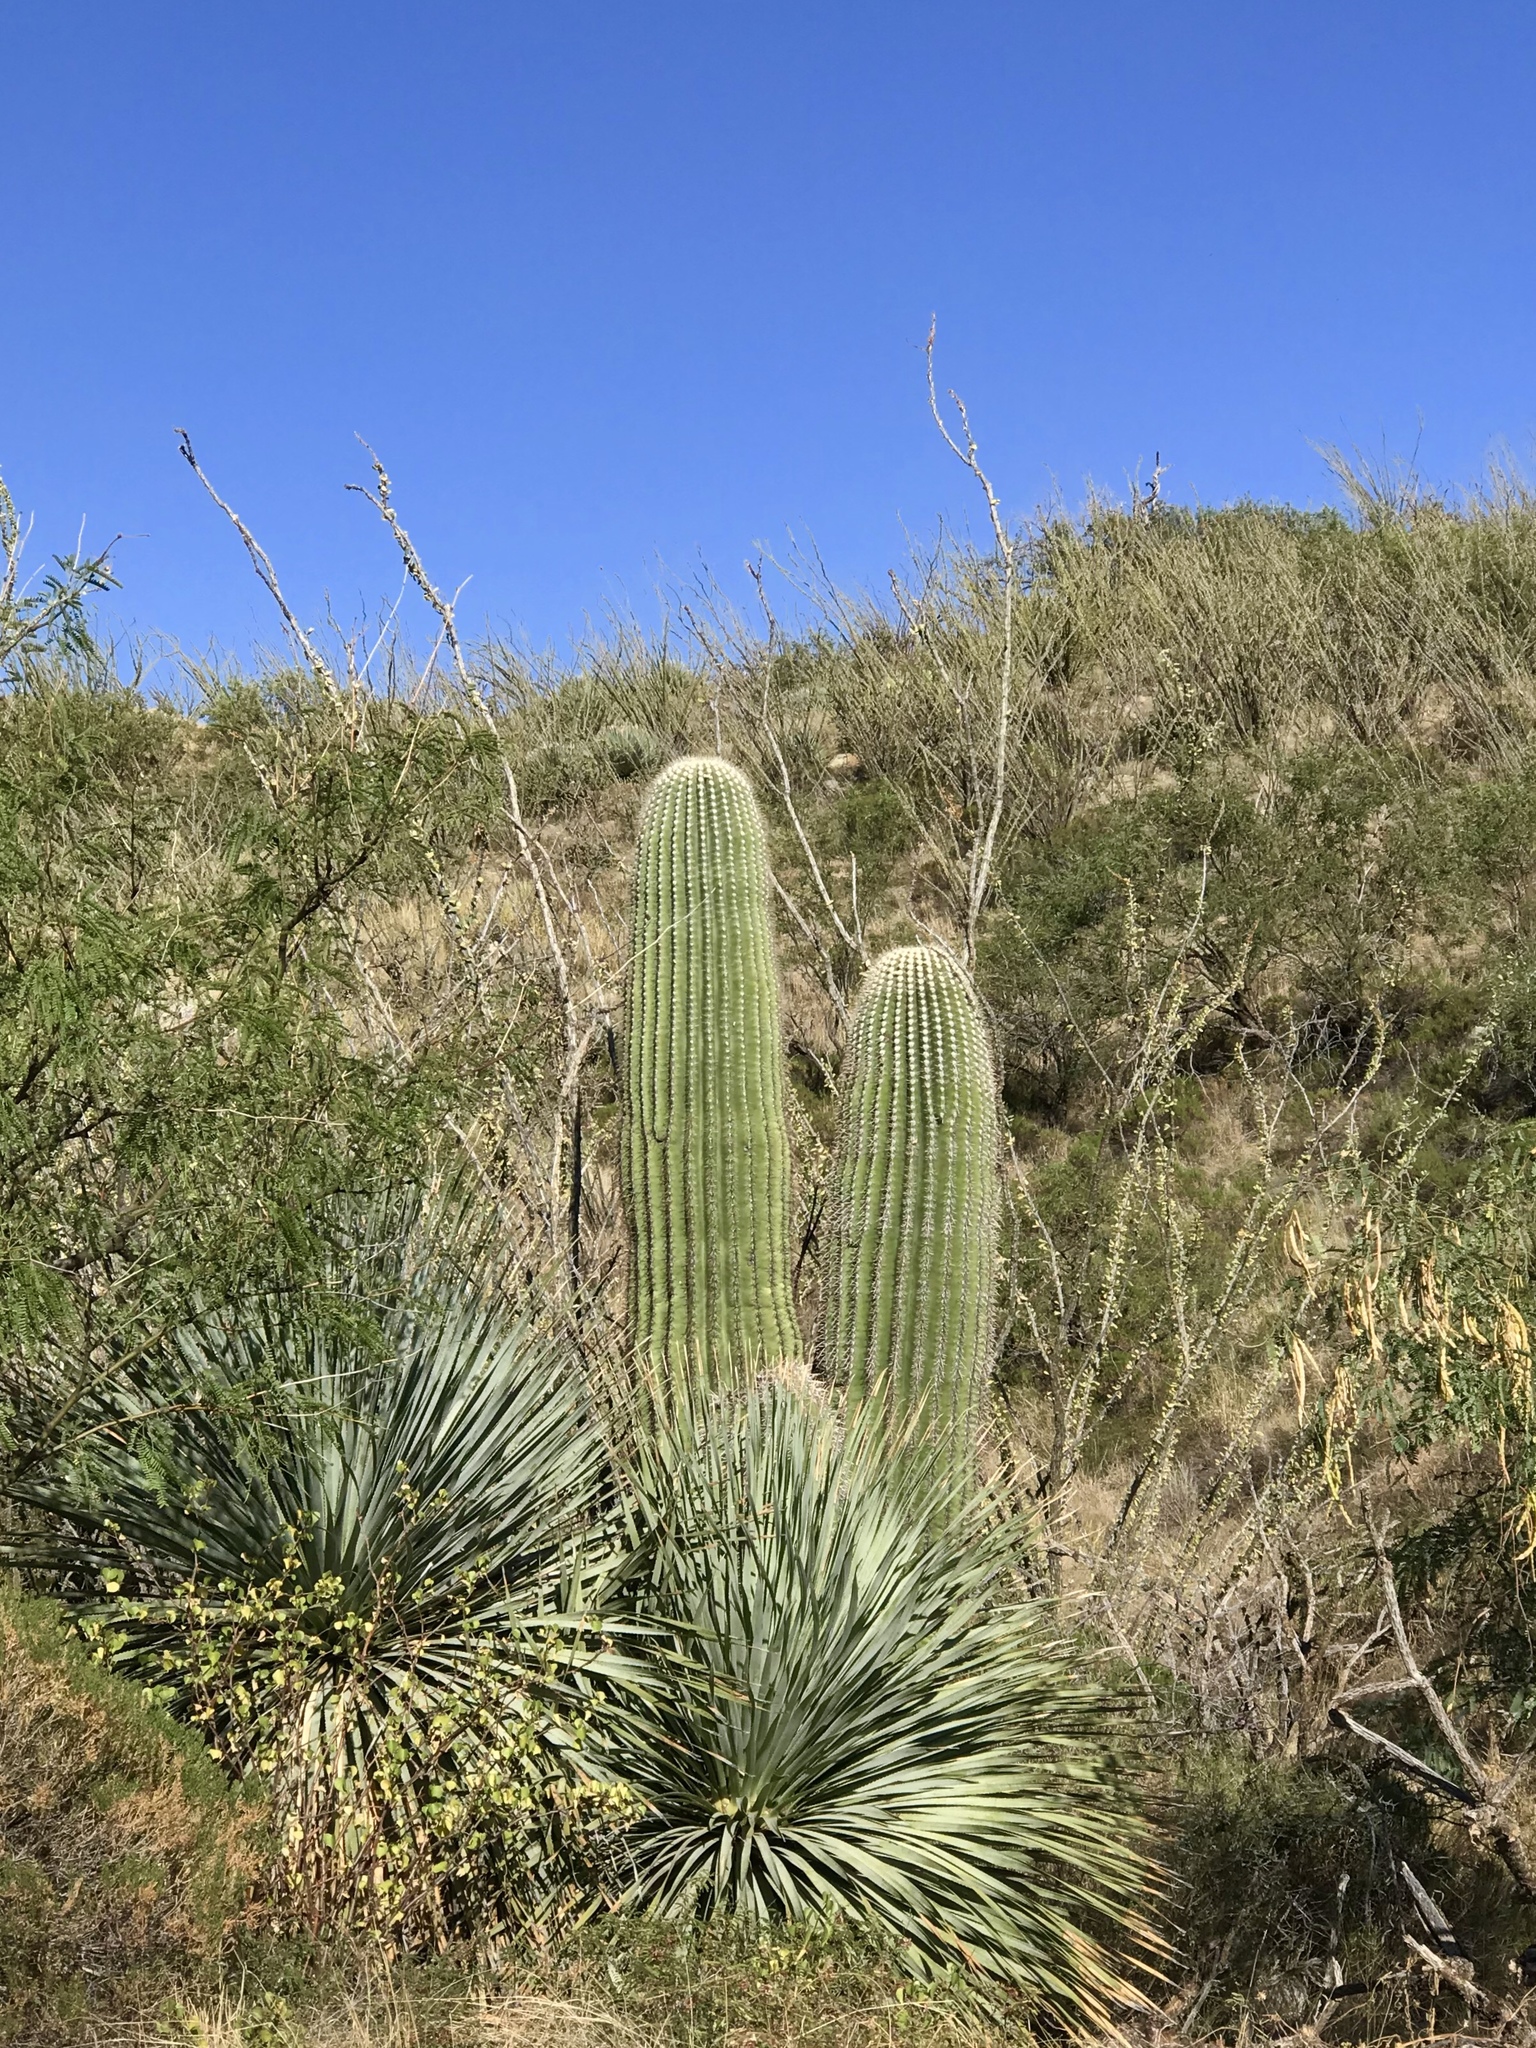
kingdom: Plantae
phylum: Tracheophyta
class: Magnoliopsida
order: Caryophyllales
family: Cactaceae
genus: Carnegiea
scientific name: Carnegiea gigantea
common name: Saguaro
